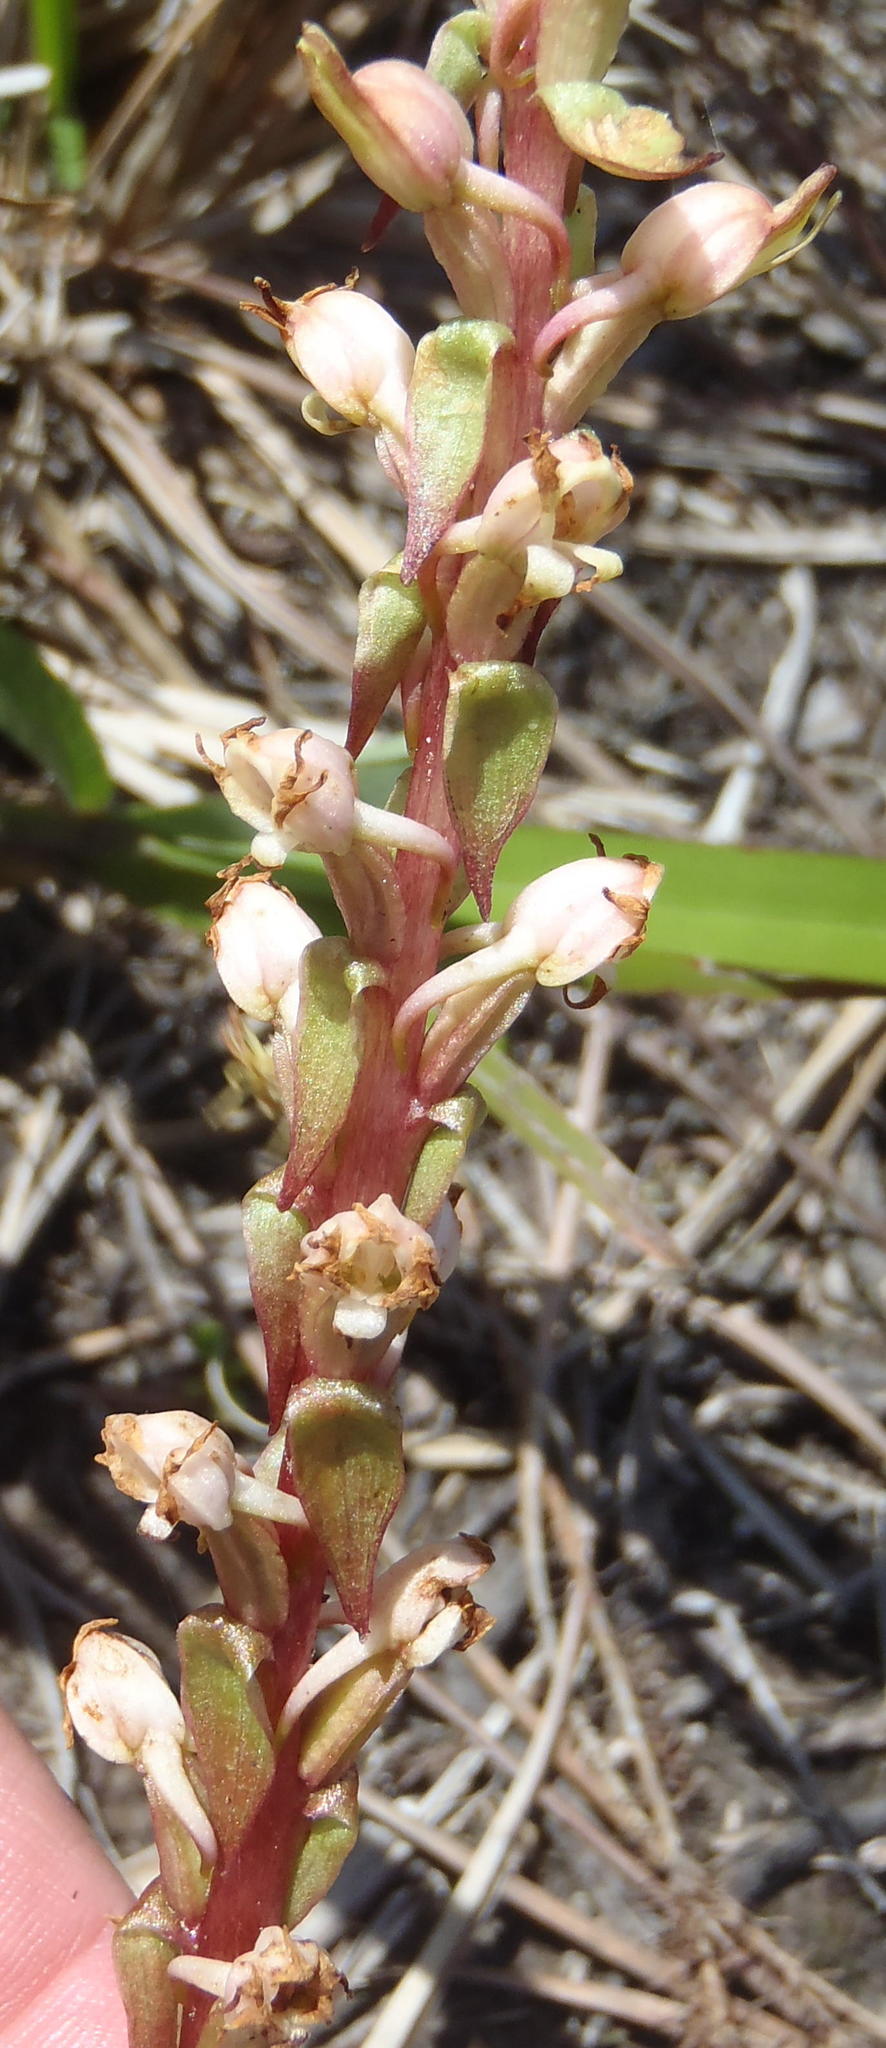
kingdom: Plantae
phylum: Tracheophyta
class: Liliopsida
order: Asparagales
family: Orchidaceae
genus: Satyrium
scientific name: Satyrium ligulatum
